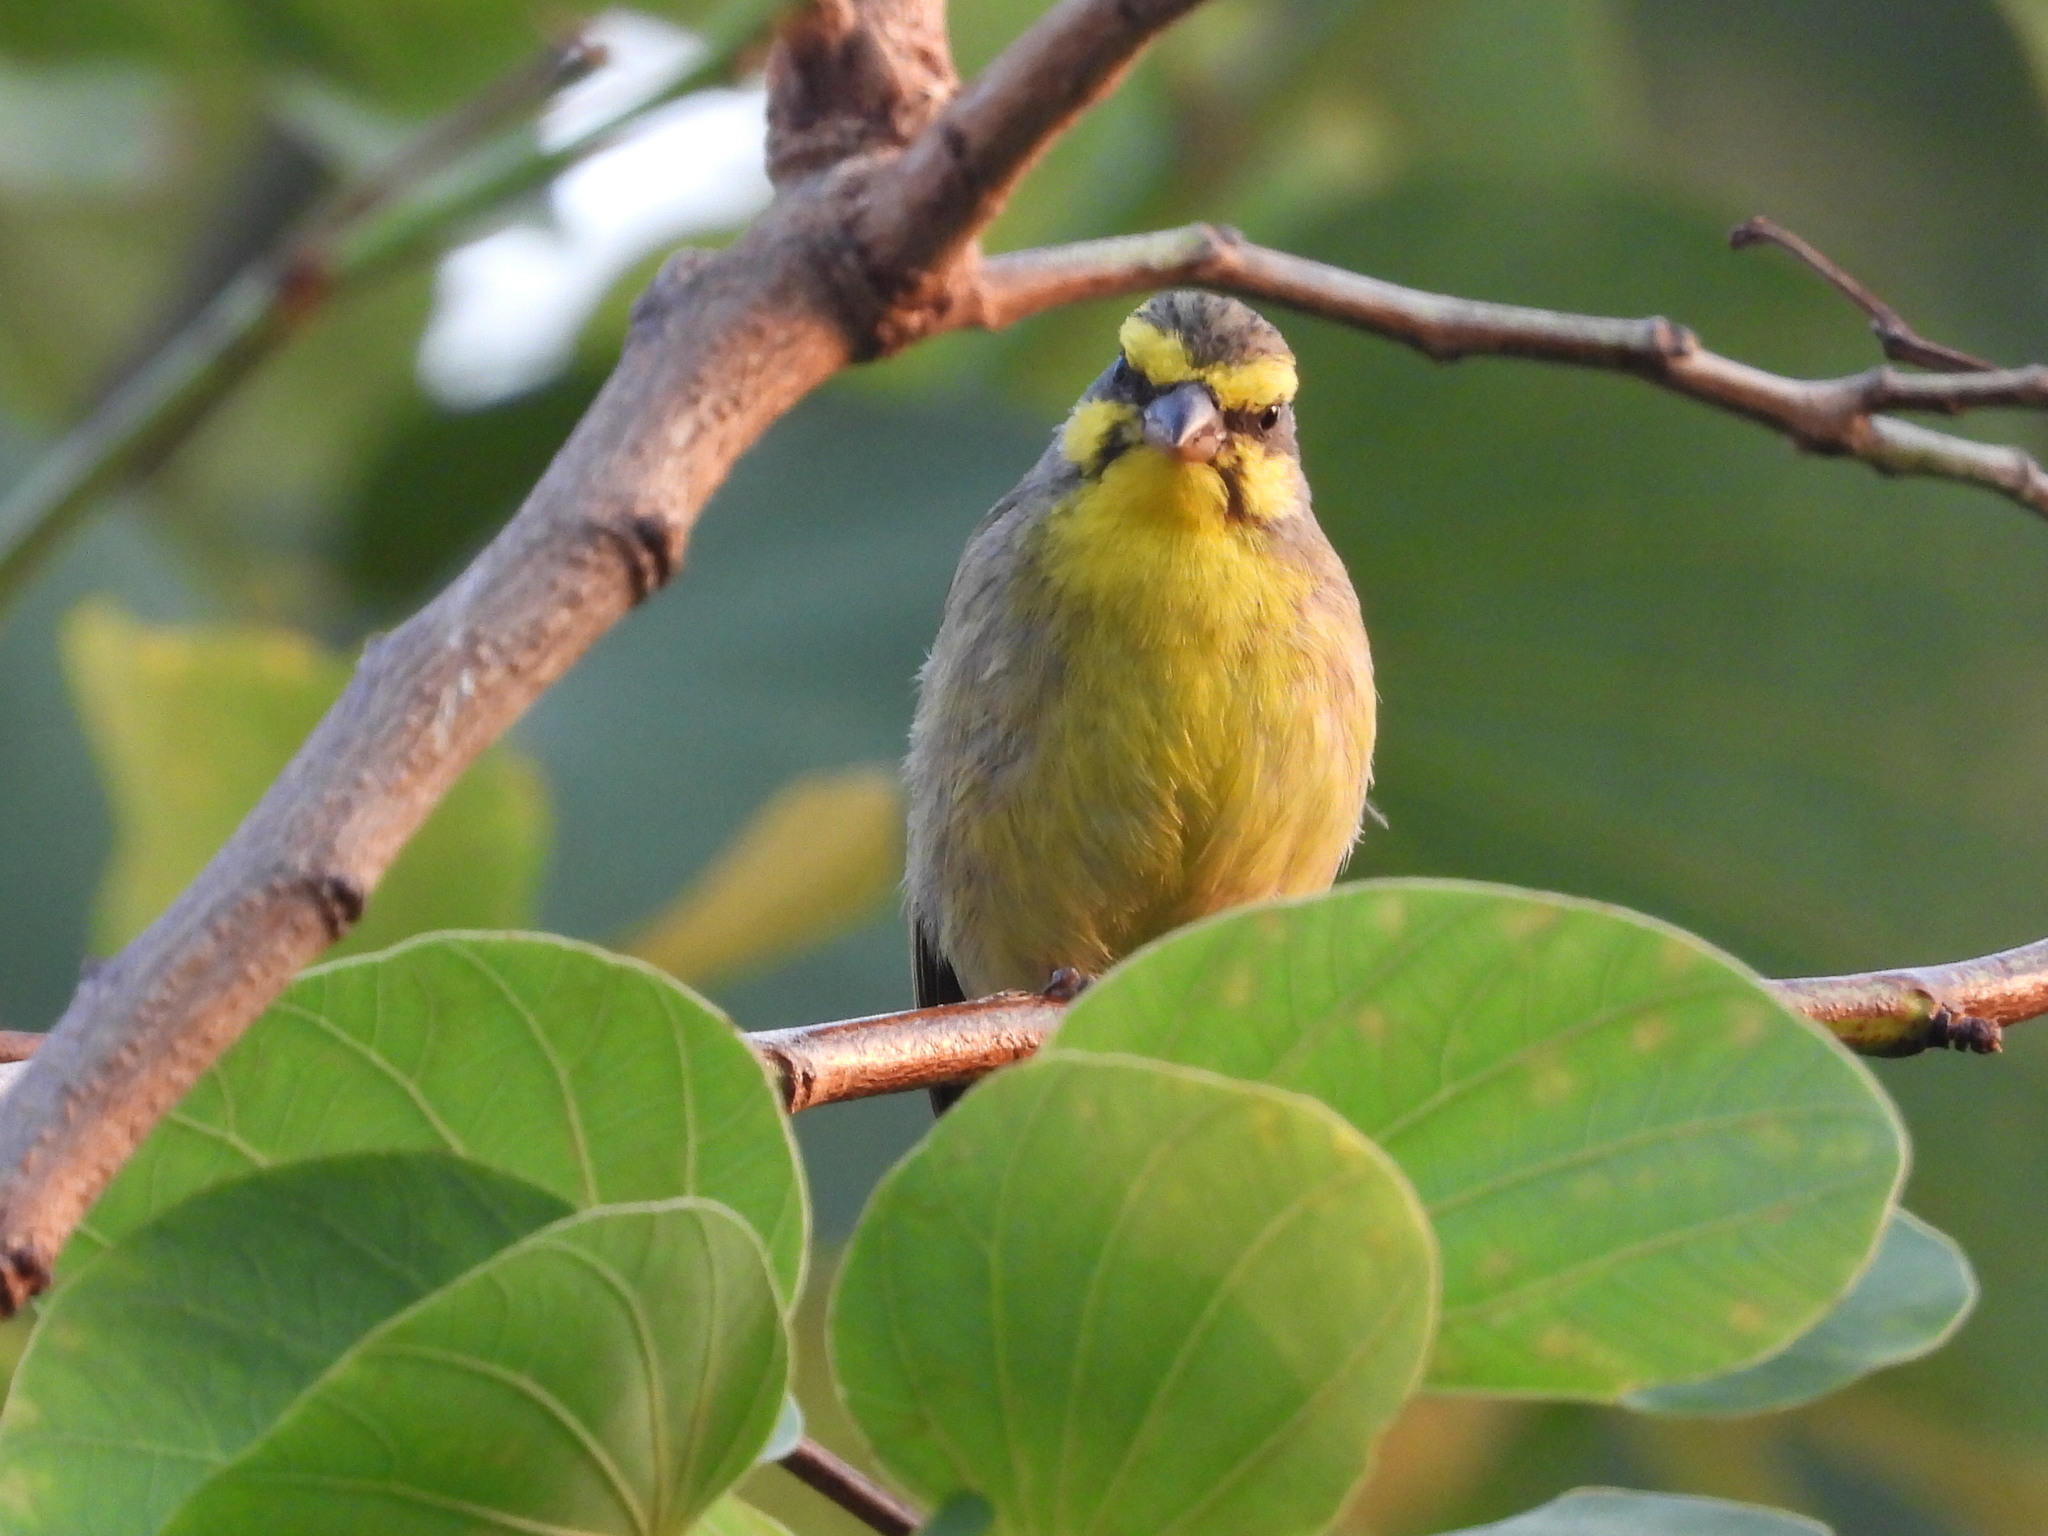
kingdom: Animalia
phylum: Chordata
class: Aves
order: Passeriformes
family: Fringillidae
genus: Crithagra
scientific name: Crithagra mozambica
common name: Yellow-fronted canary
